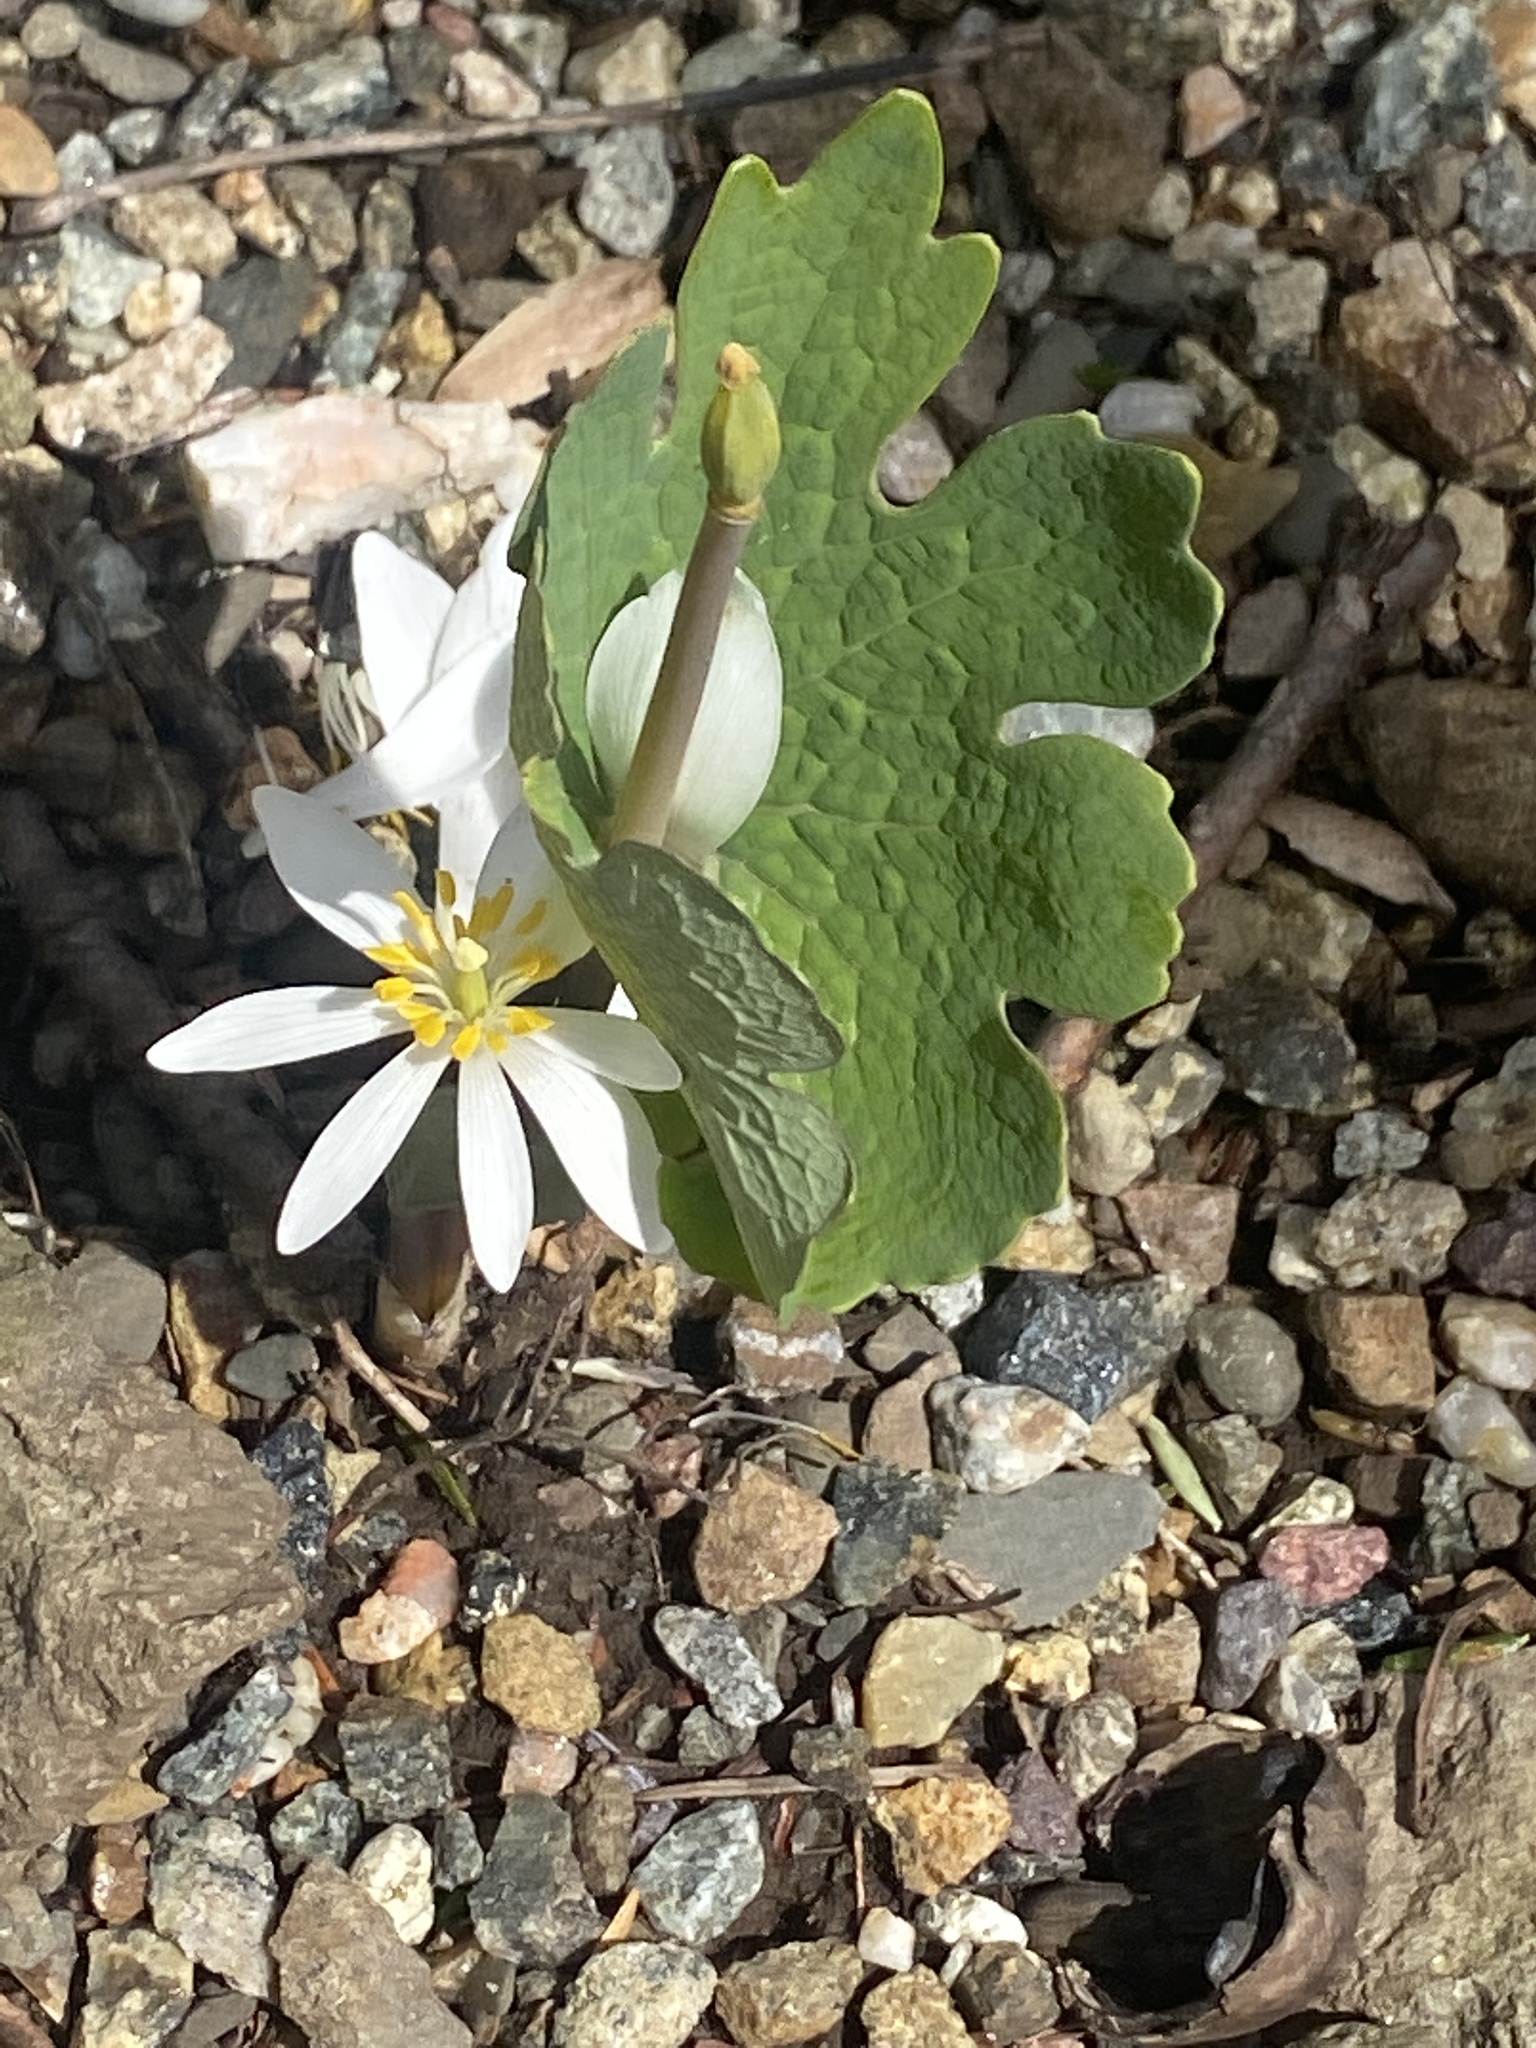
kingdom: Plantae
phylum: Tracheophyta
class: Magnoliopsida
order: Ranunculales
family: Papaveraceae
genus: Sanguinaria
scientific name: Sanguinaria canadensis
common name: Bloodroot
